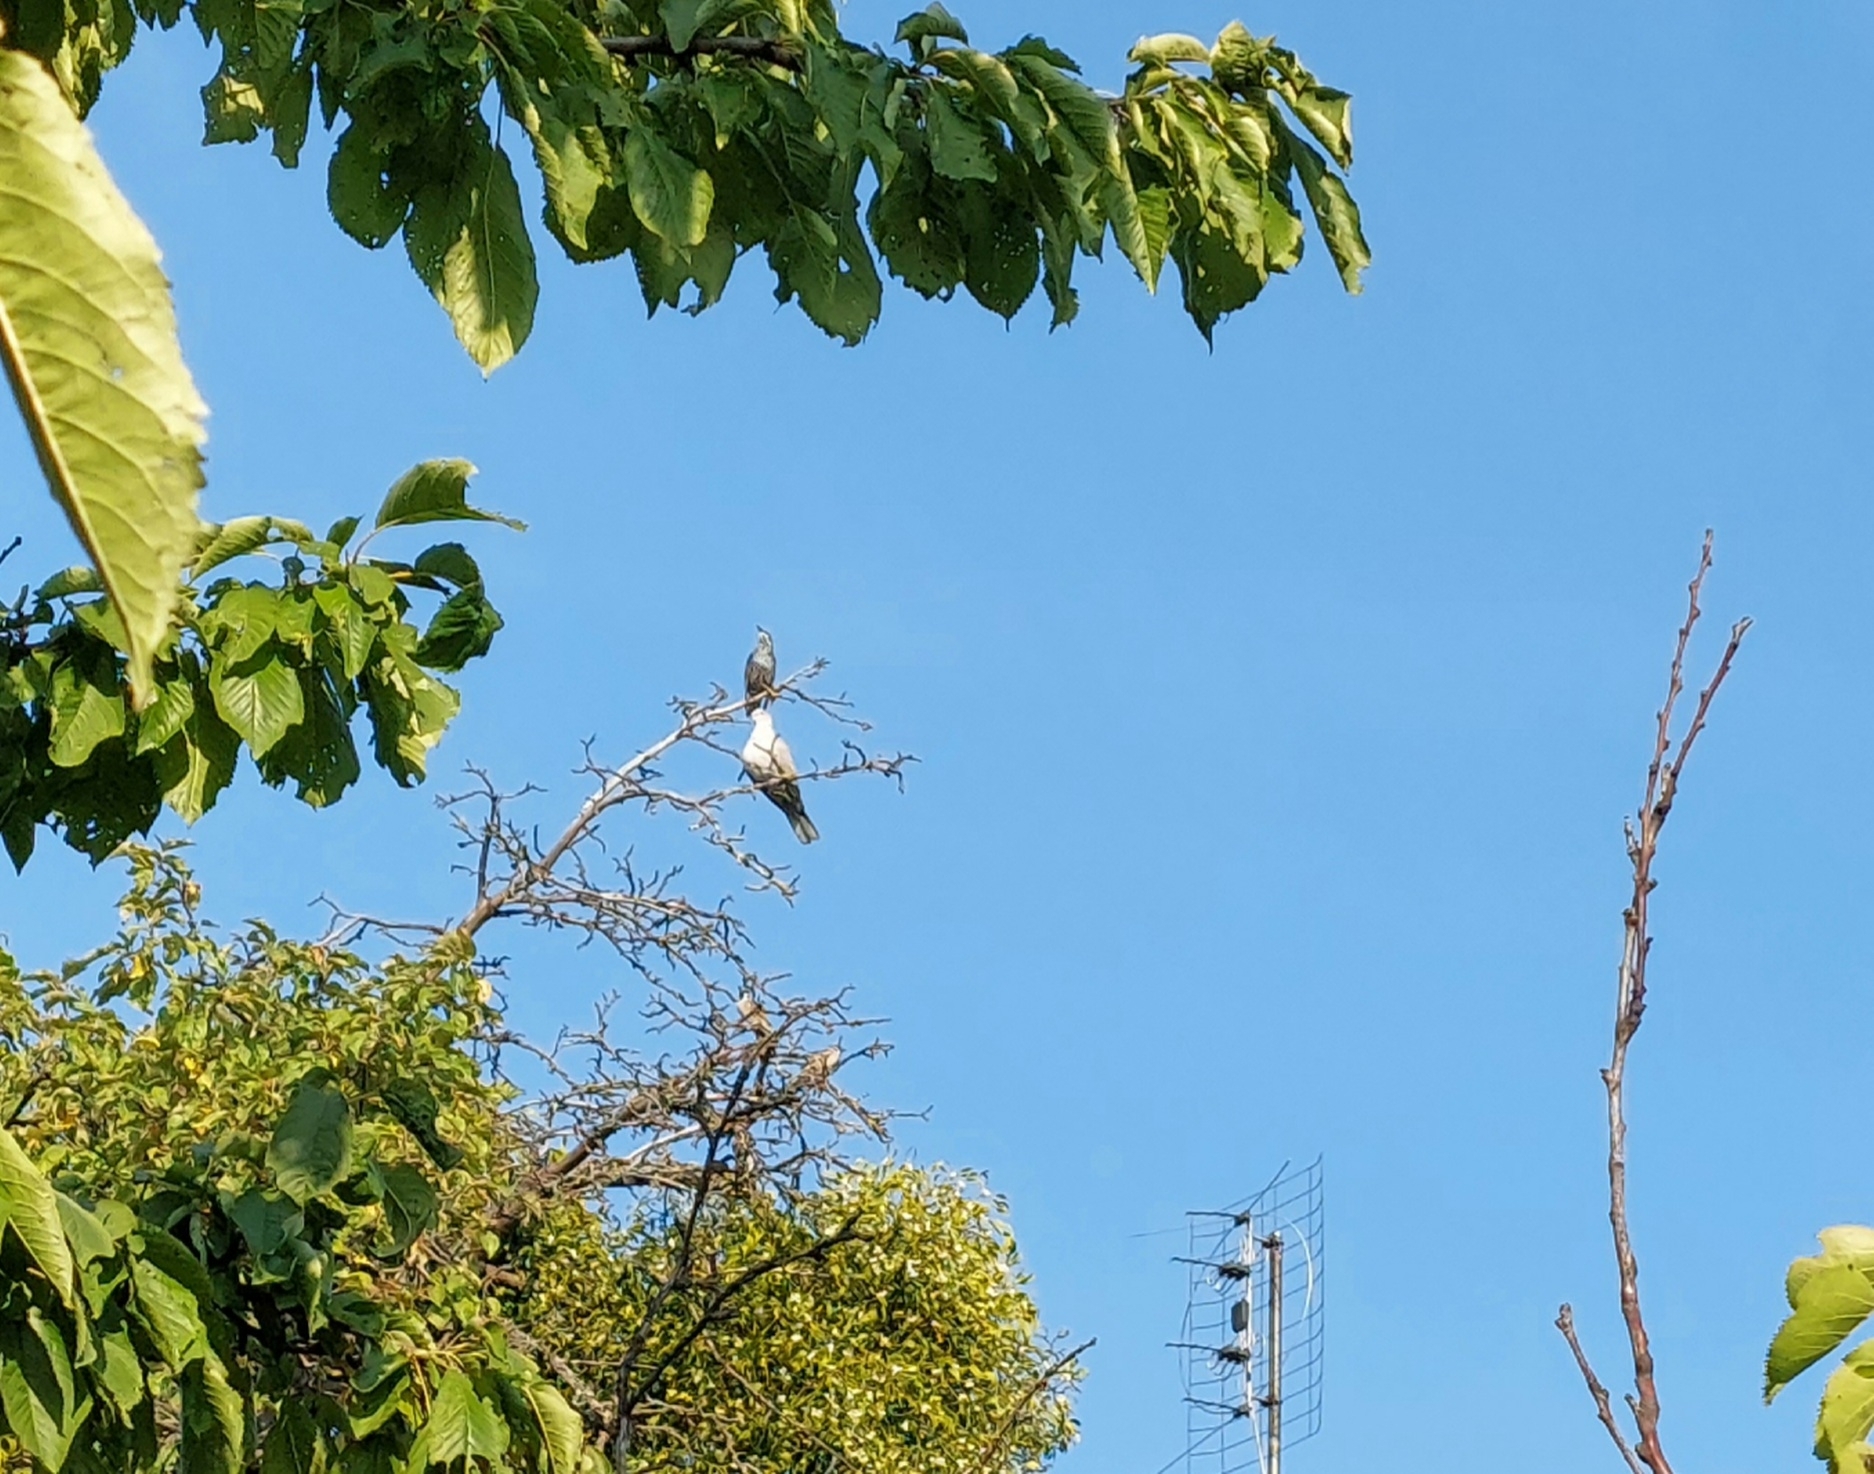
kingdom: Animalia
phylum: Chordata
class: Aves
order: Columbiformes
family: Columbidae
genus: Streptopelia
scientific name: Streptopelia decaocto
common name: Eurasian collared dove
